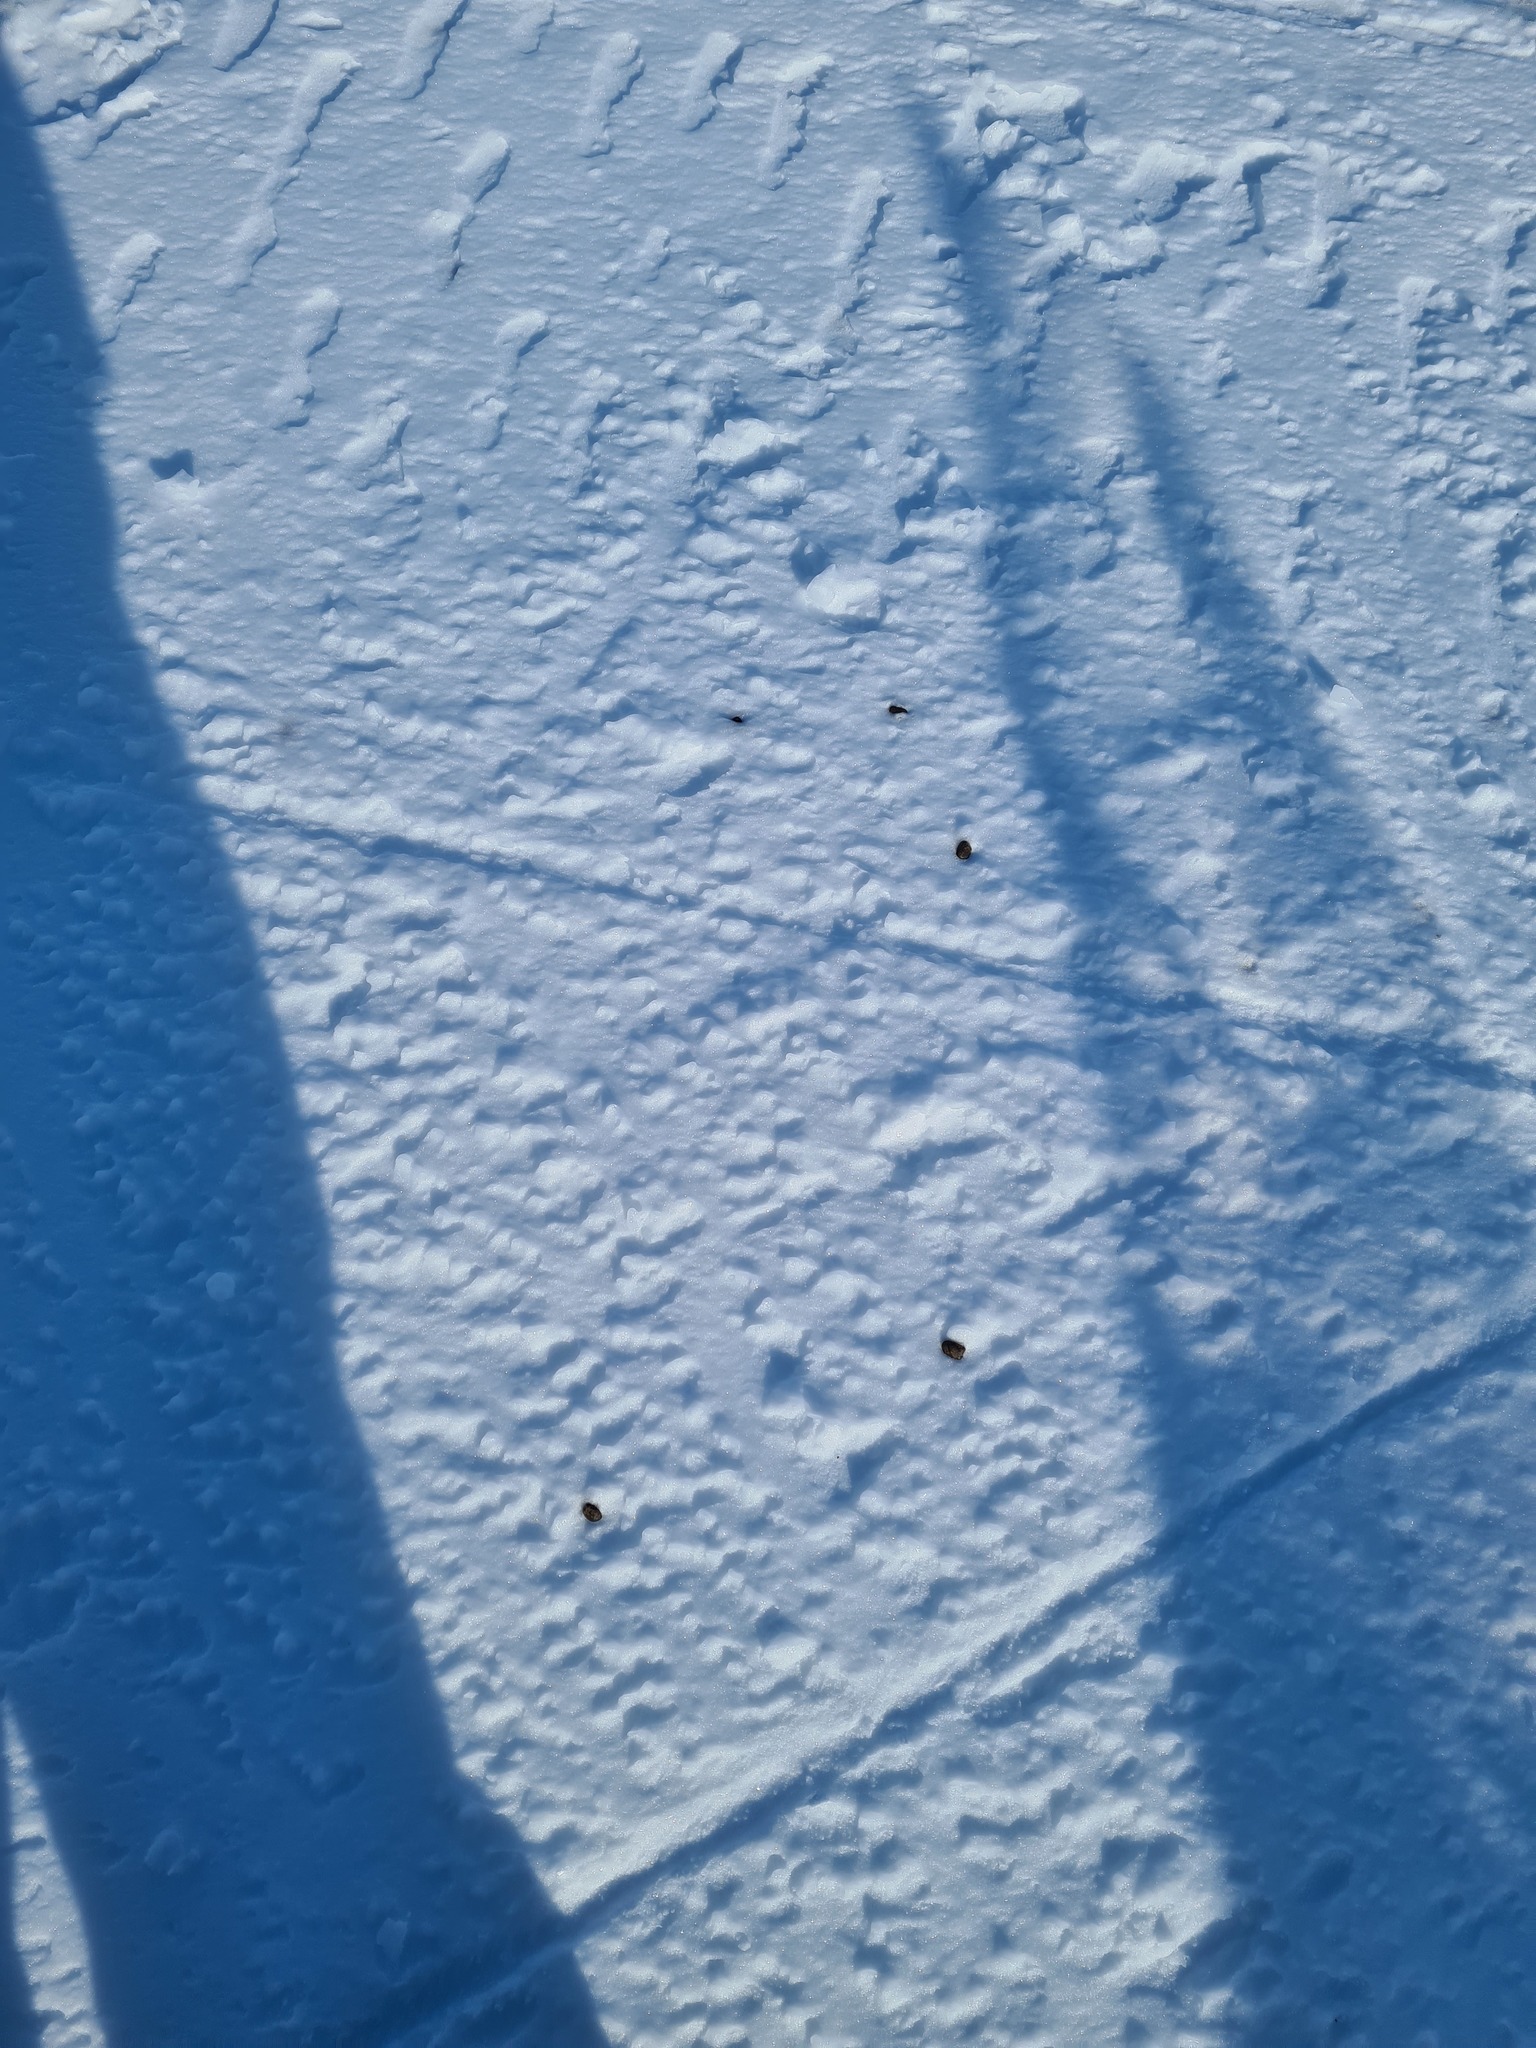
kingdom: Animalia
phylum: Chordata
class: Mammalia
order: Artiodactyla
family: Cervidae
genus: Rangifer
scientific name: Rangifer tarandus
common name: Reindeer
